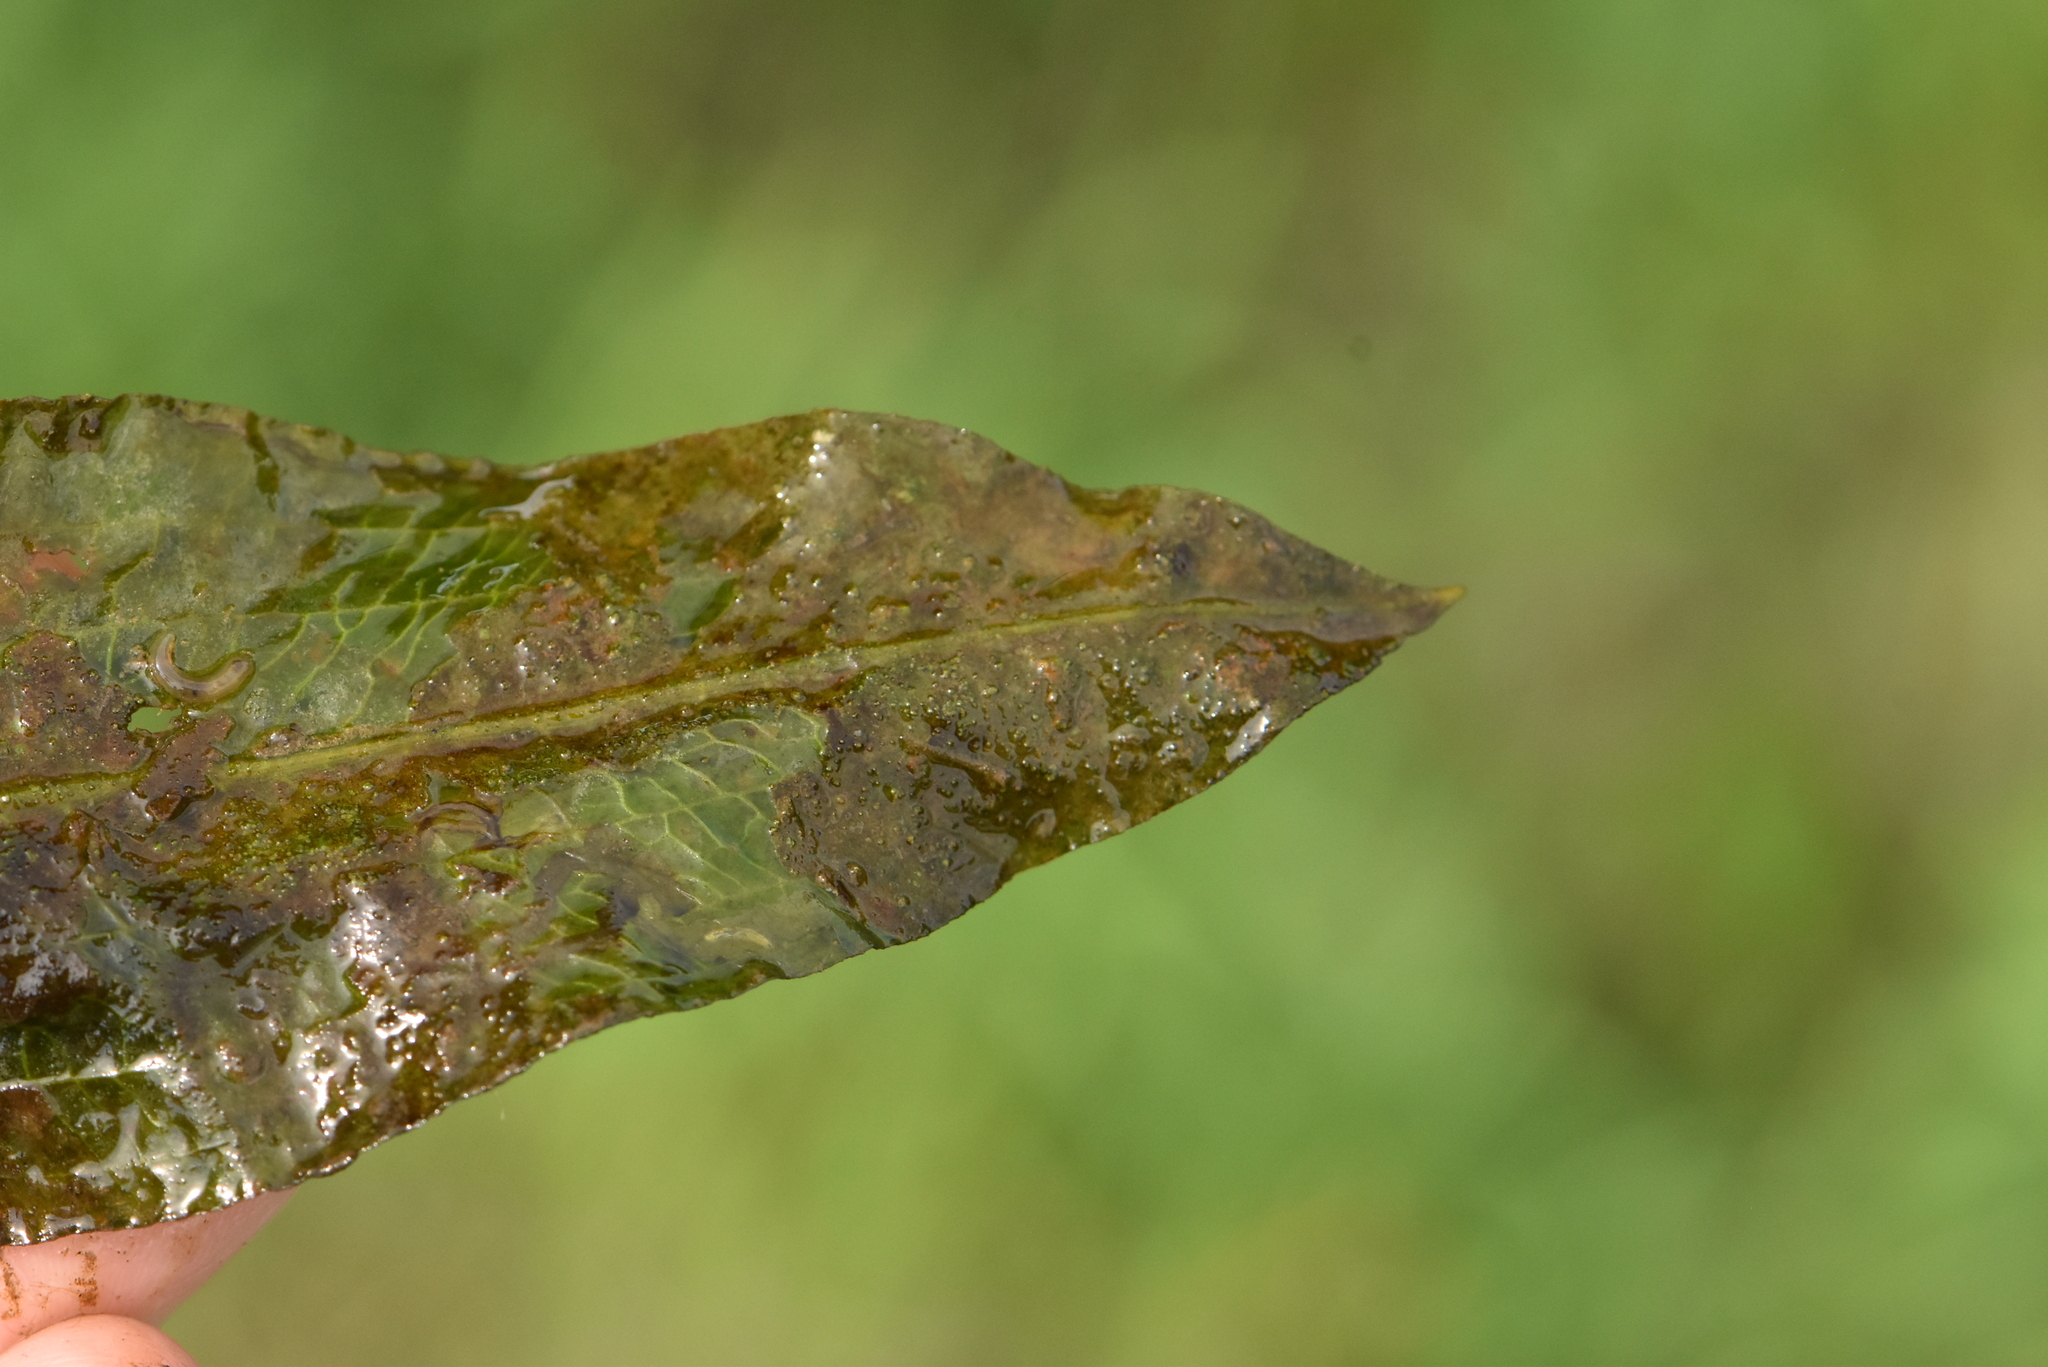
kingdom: Plantae
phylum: Tracheophyta
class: Liliopsida
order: Alismatales
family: Potamogetonaceae
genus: Potamogeton
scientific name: Potamogeton lucens
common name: Shining pondweed
